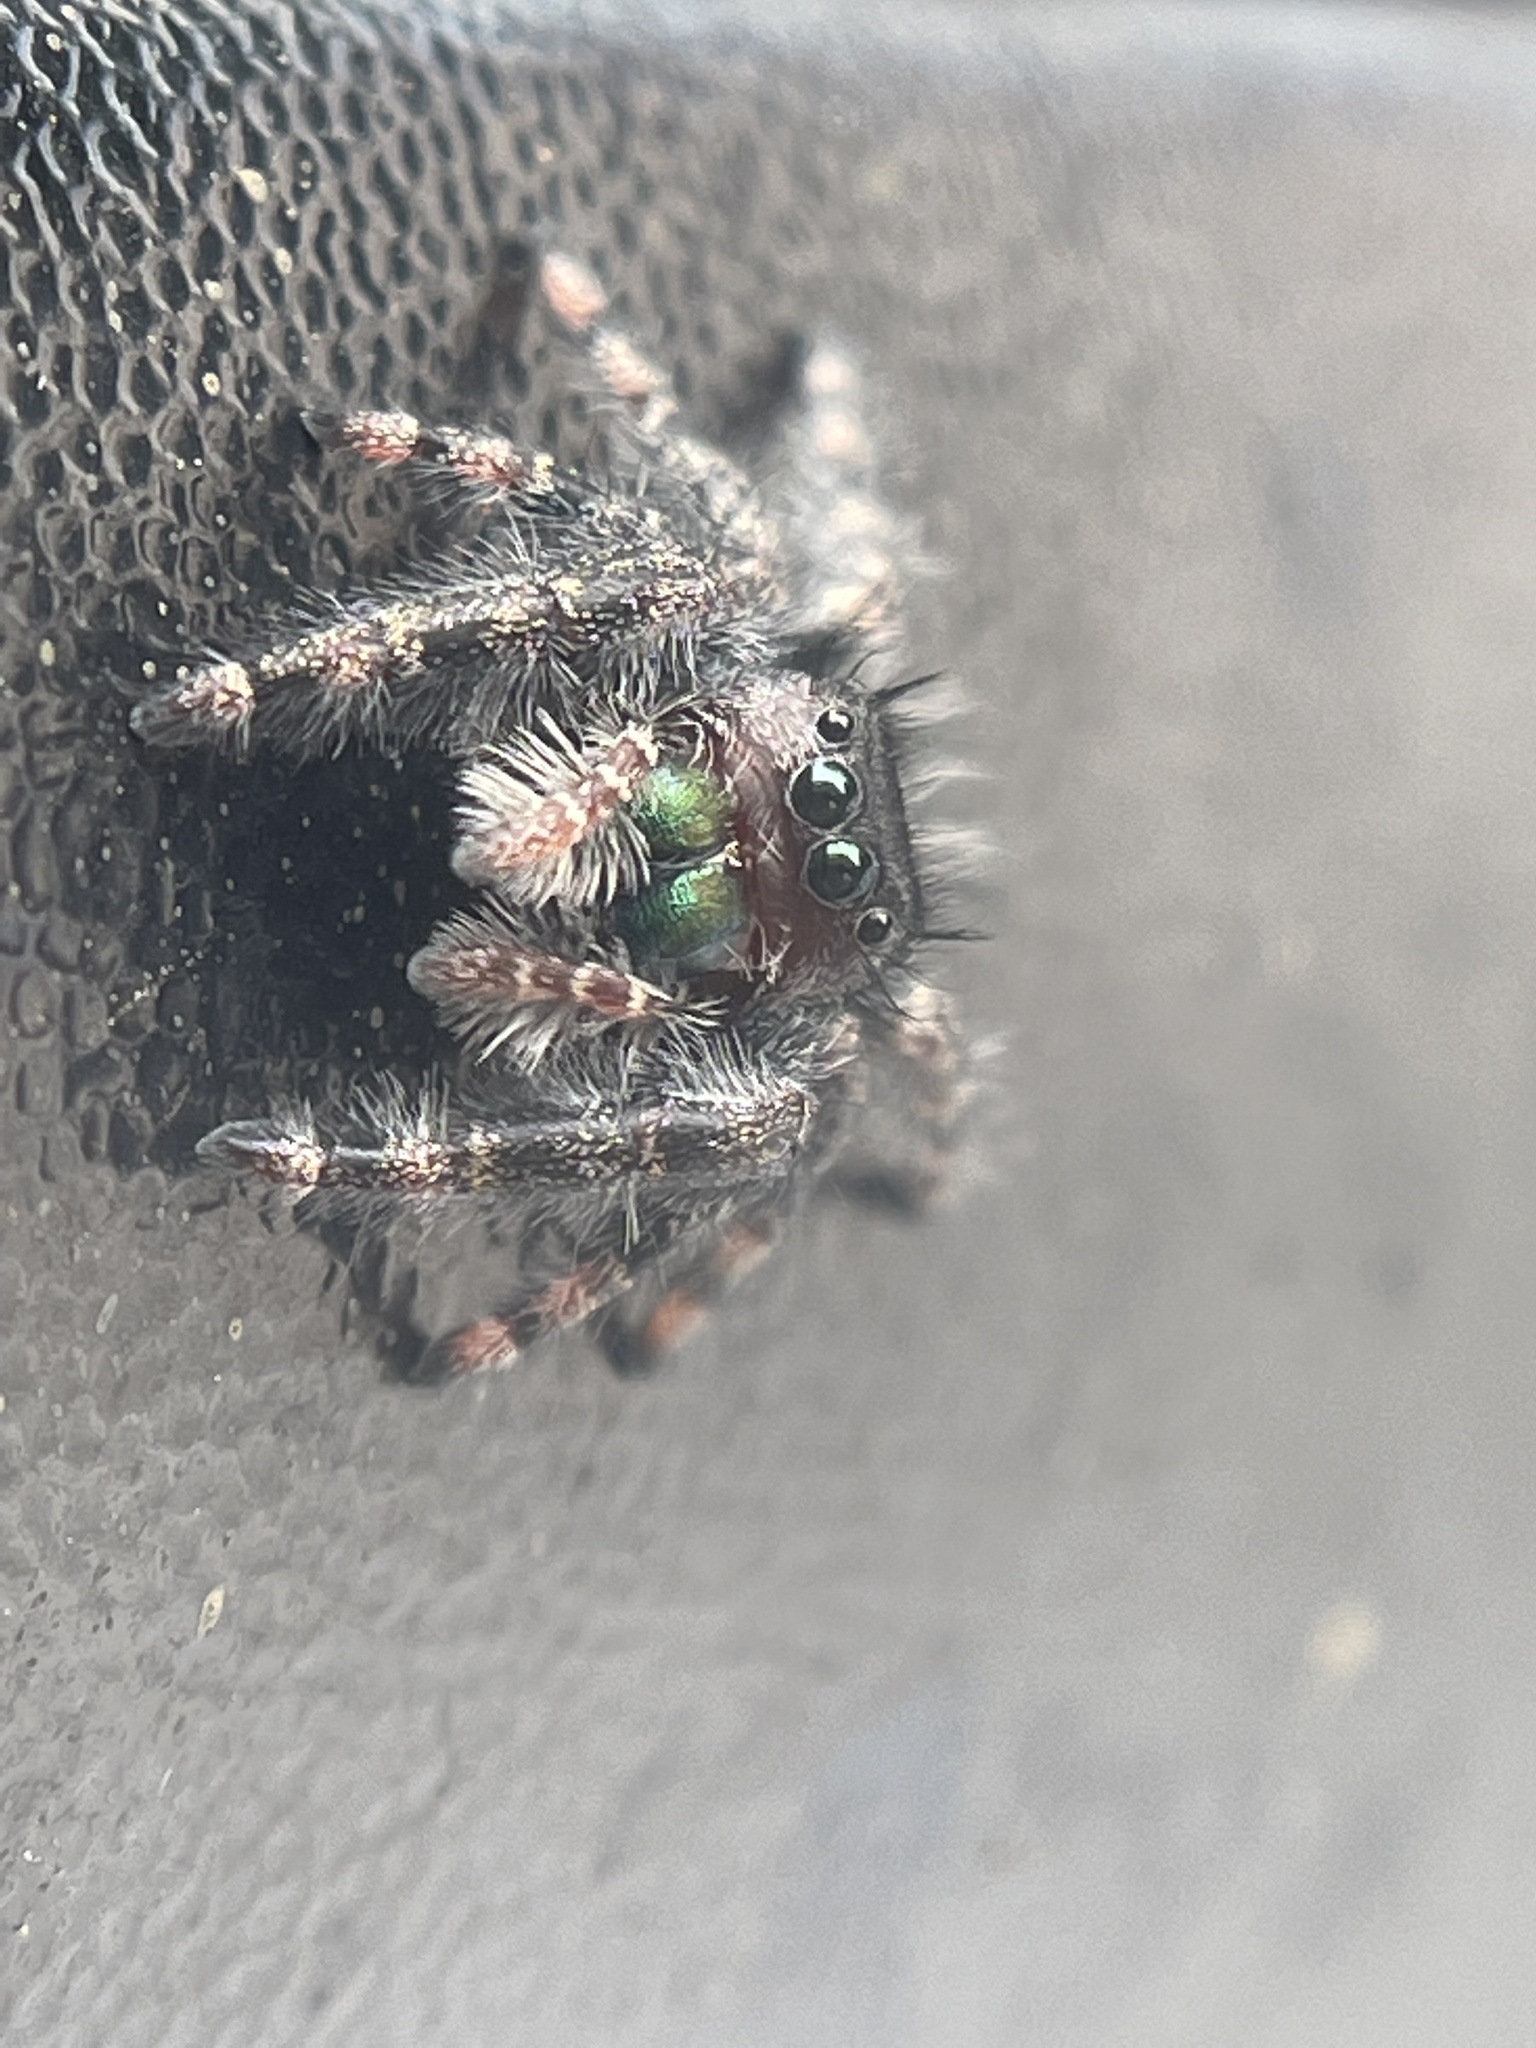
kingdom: Animalia
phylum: Arthropoda
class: Arachnida
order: Araneae
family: Salticidae
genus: Phidippus
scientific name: Phidippus audax
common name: Bold jumper
